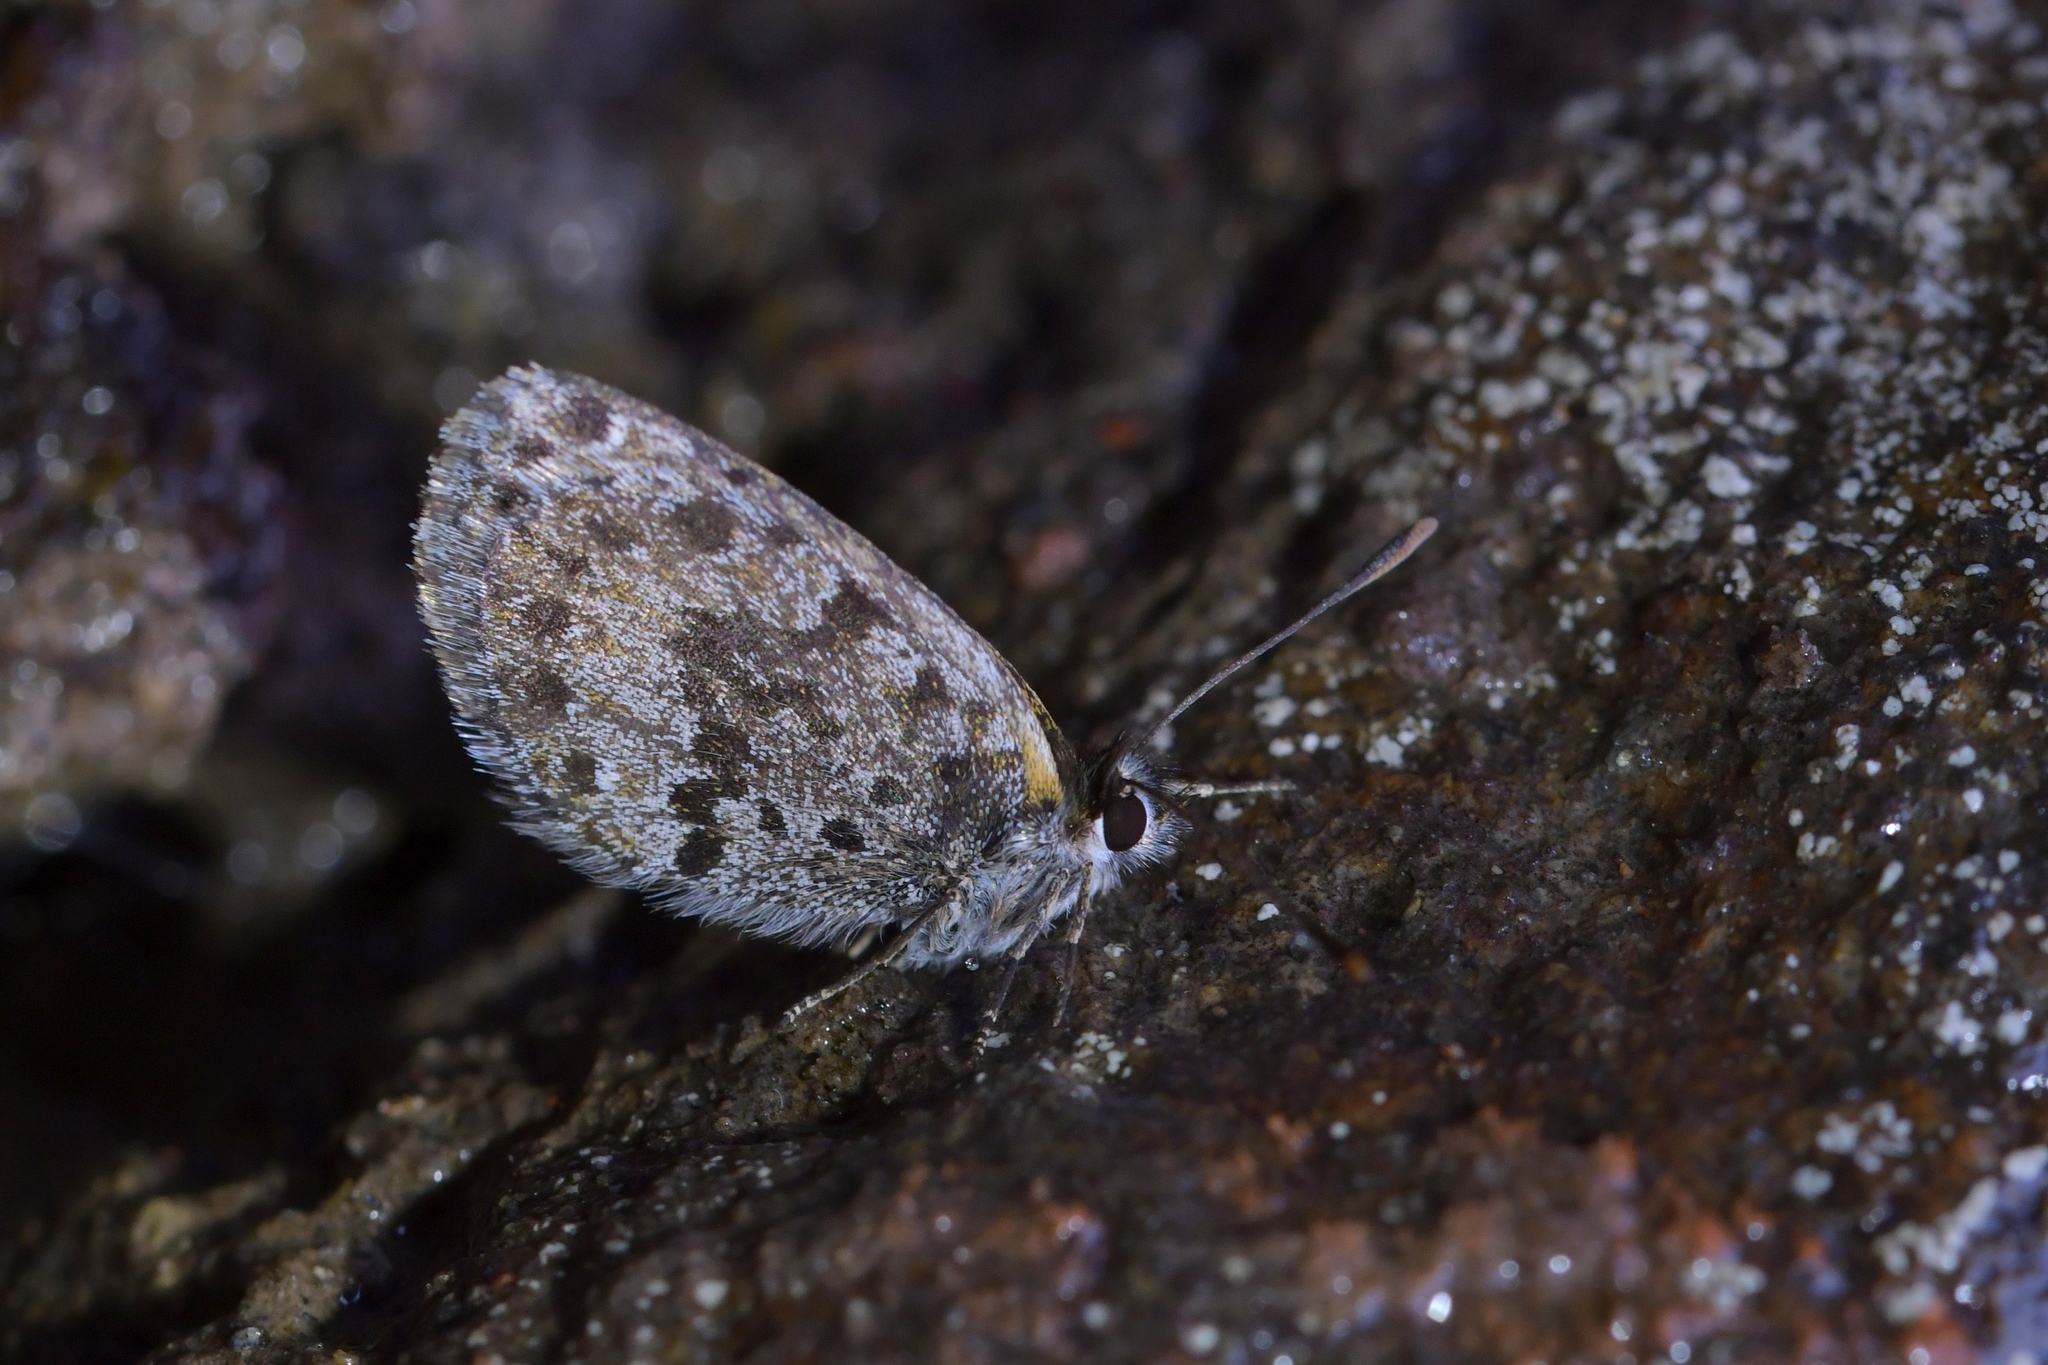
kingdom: Animalia
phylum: Arthropoda
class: Insecta
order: Lepidoptera
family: Lycaenidae
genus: Lycaena
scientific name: Lycaena boldenarum
